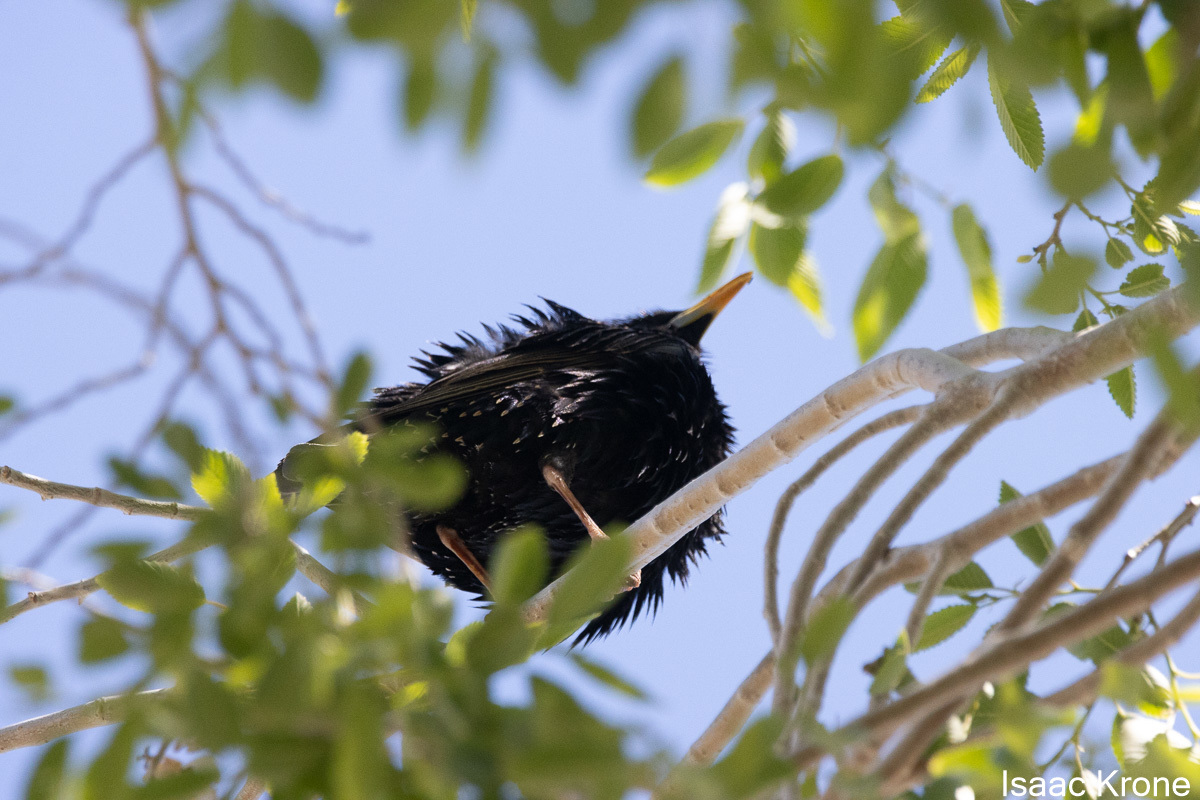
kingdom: Animalia
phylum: Chordata
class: Aves
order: Passeriformes
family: Sturnidae
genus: Sturnus
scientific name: Sturnus vulgaris
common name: Common starling
